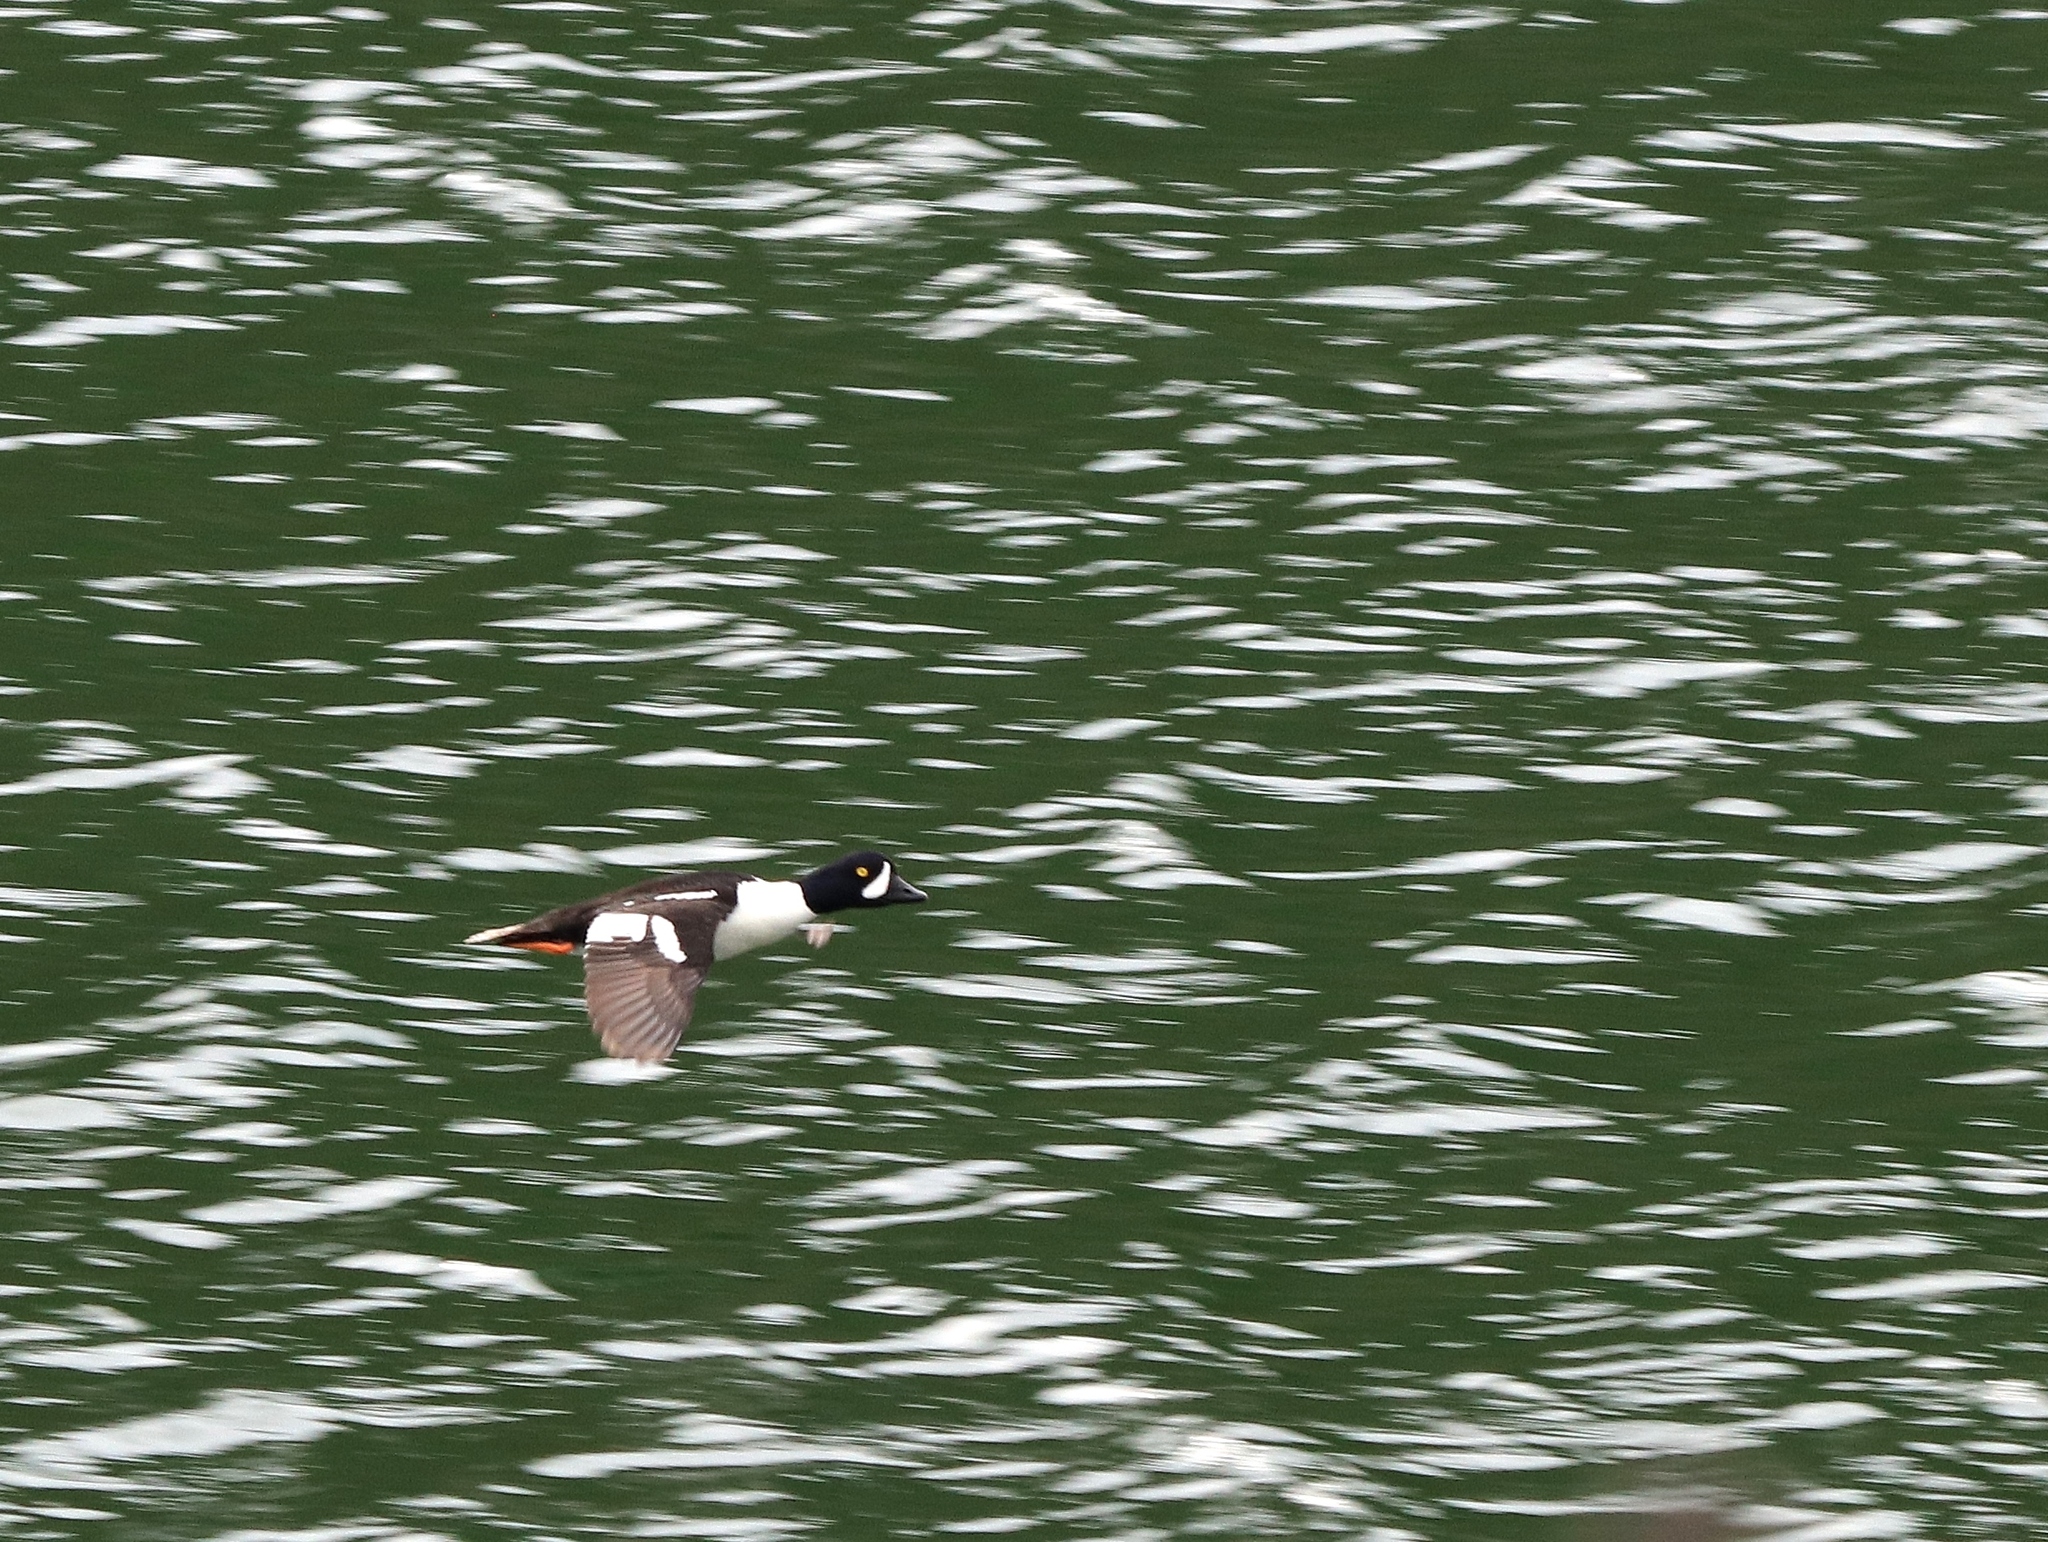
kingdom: Animalia
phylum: Chordata
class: Aves
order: Anseriformes
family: Anatidae
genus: Bucephala
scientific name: Bucephala islandica
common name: Barrow's goldeneye
